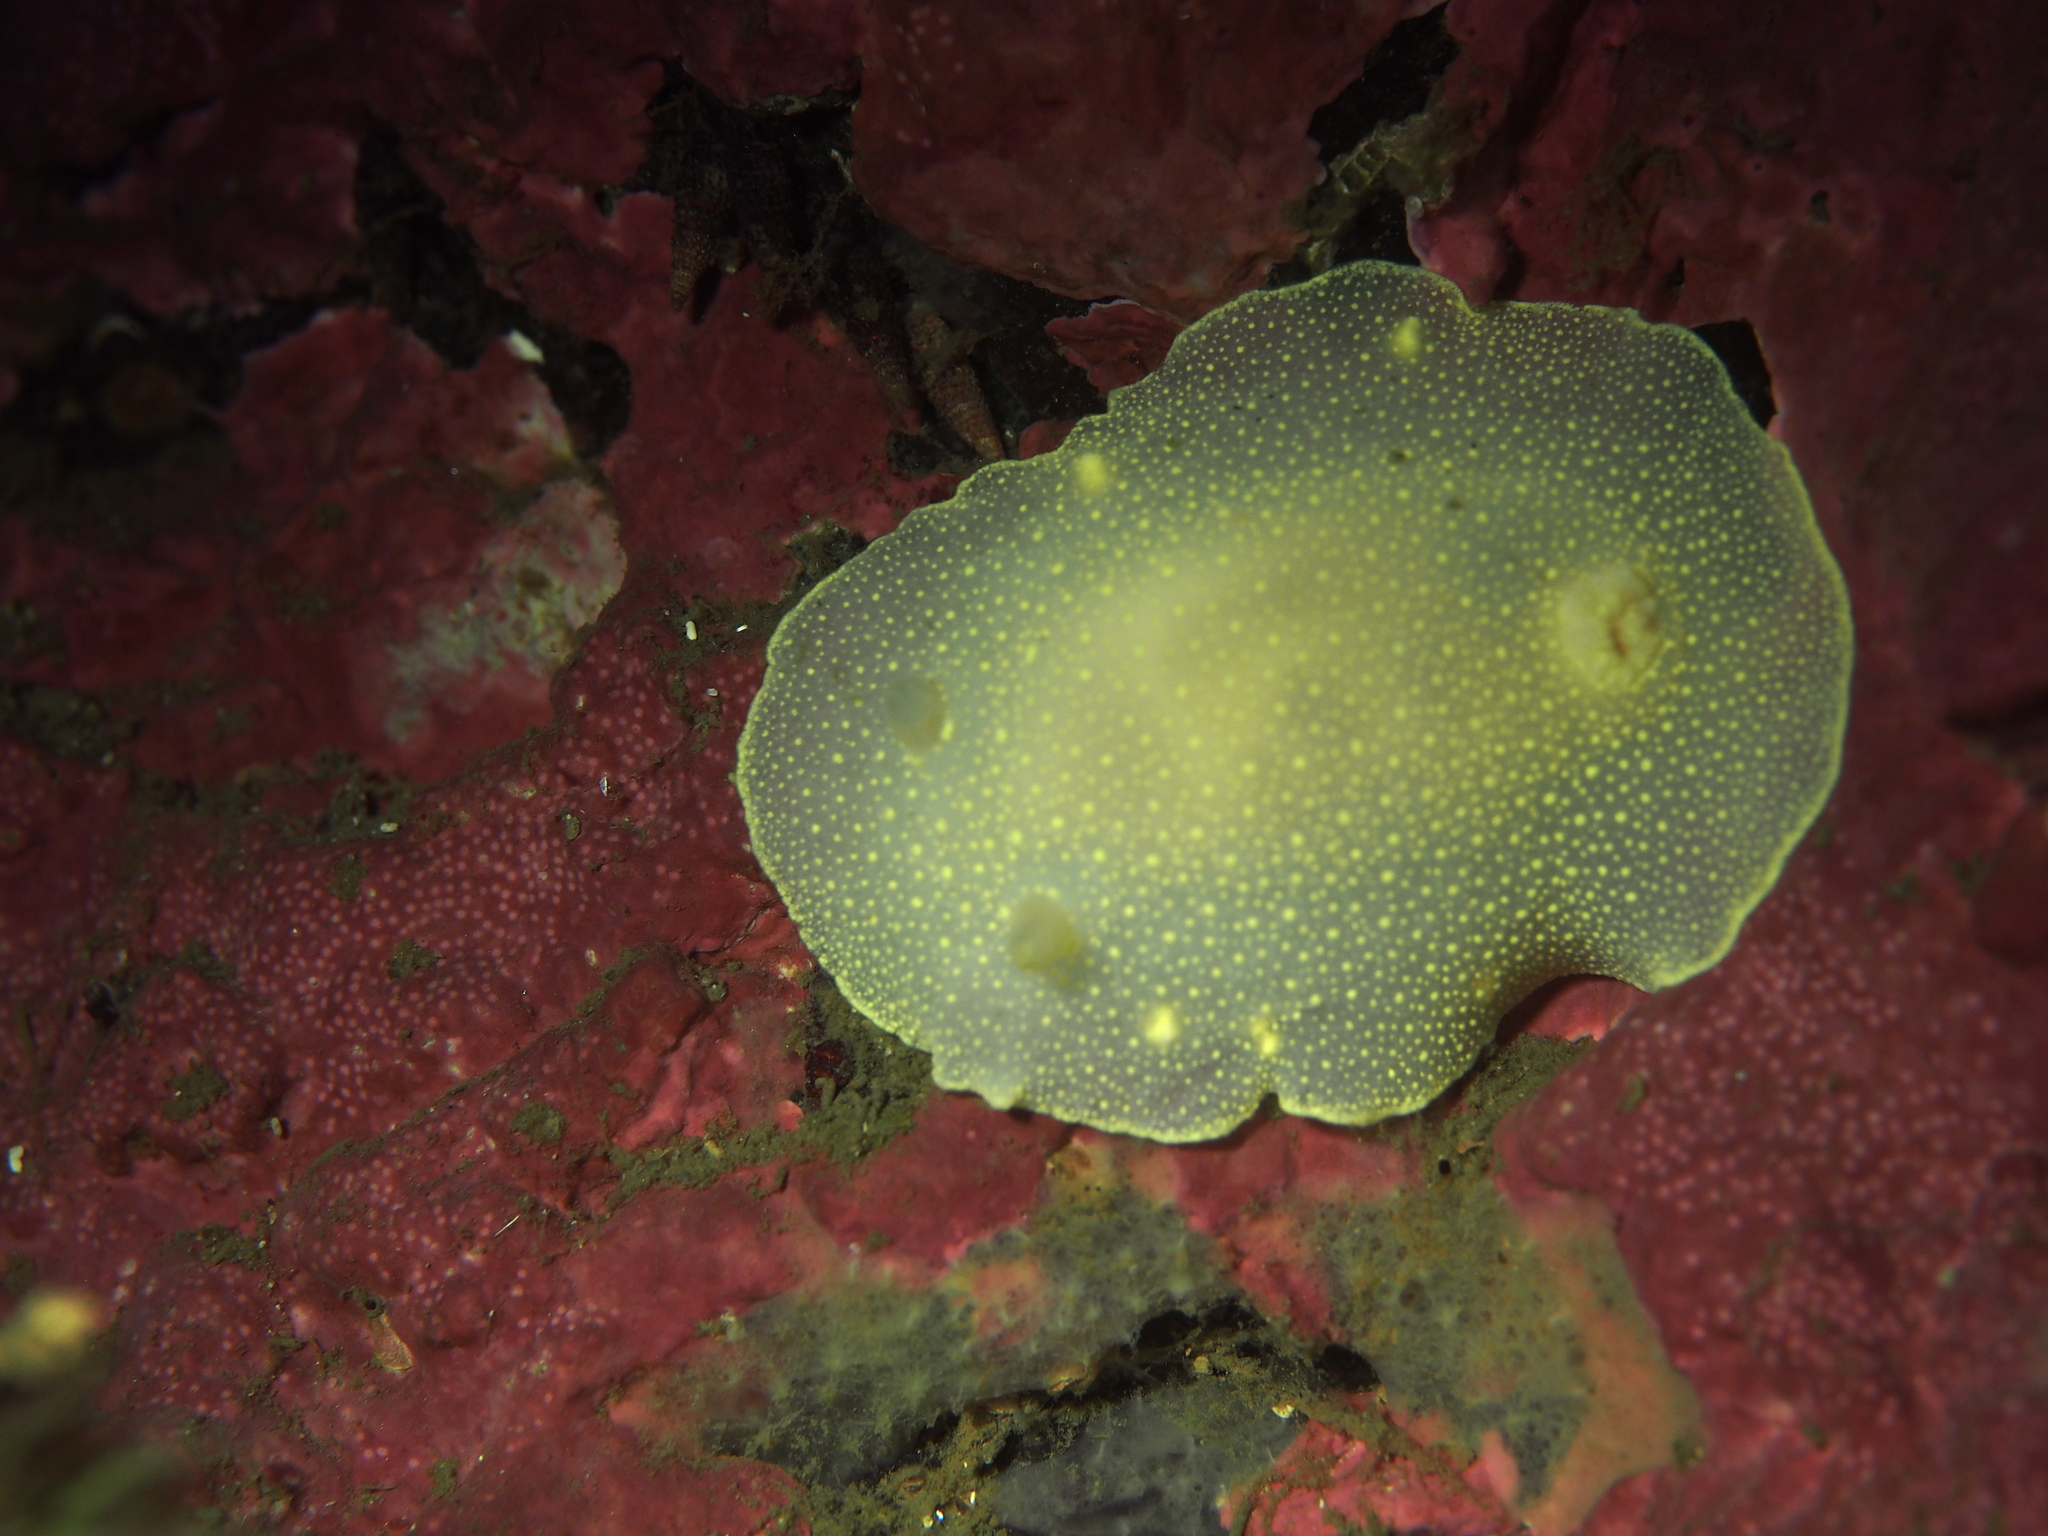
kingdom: Animalia
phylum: Mollusca
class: Gastropoda
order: Nudibranchia
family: Cadlinidae
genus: Cadlina
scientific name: Cadlina laevis
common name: White atlantic cadlina
